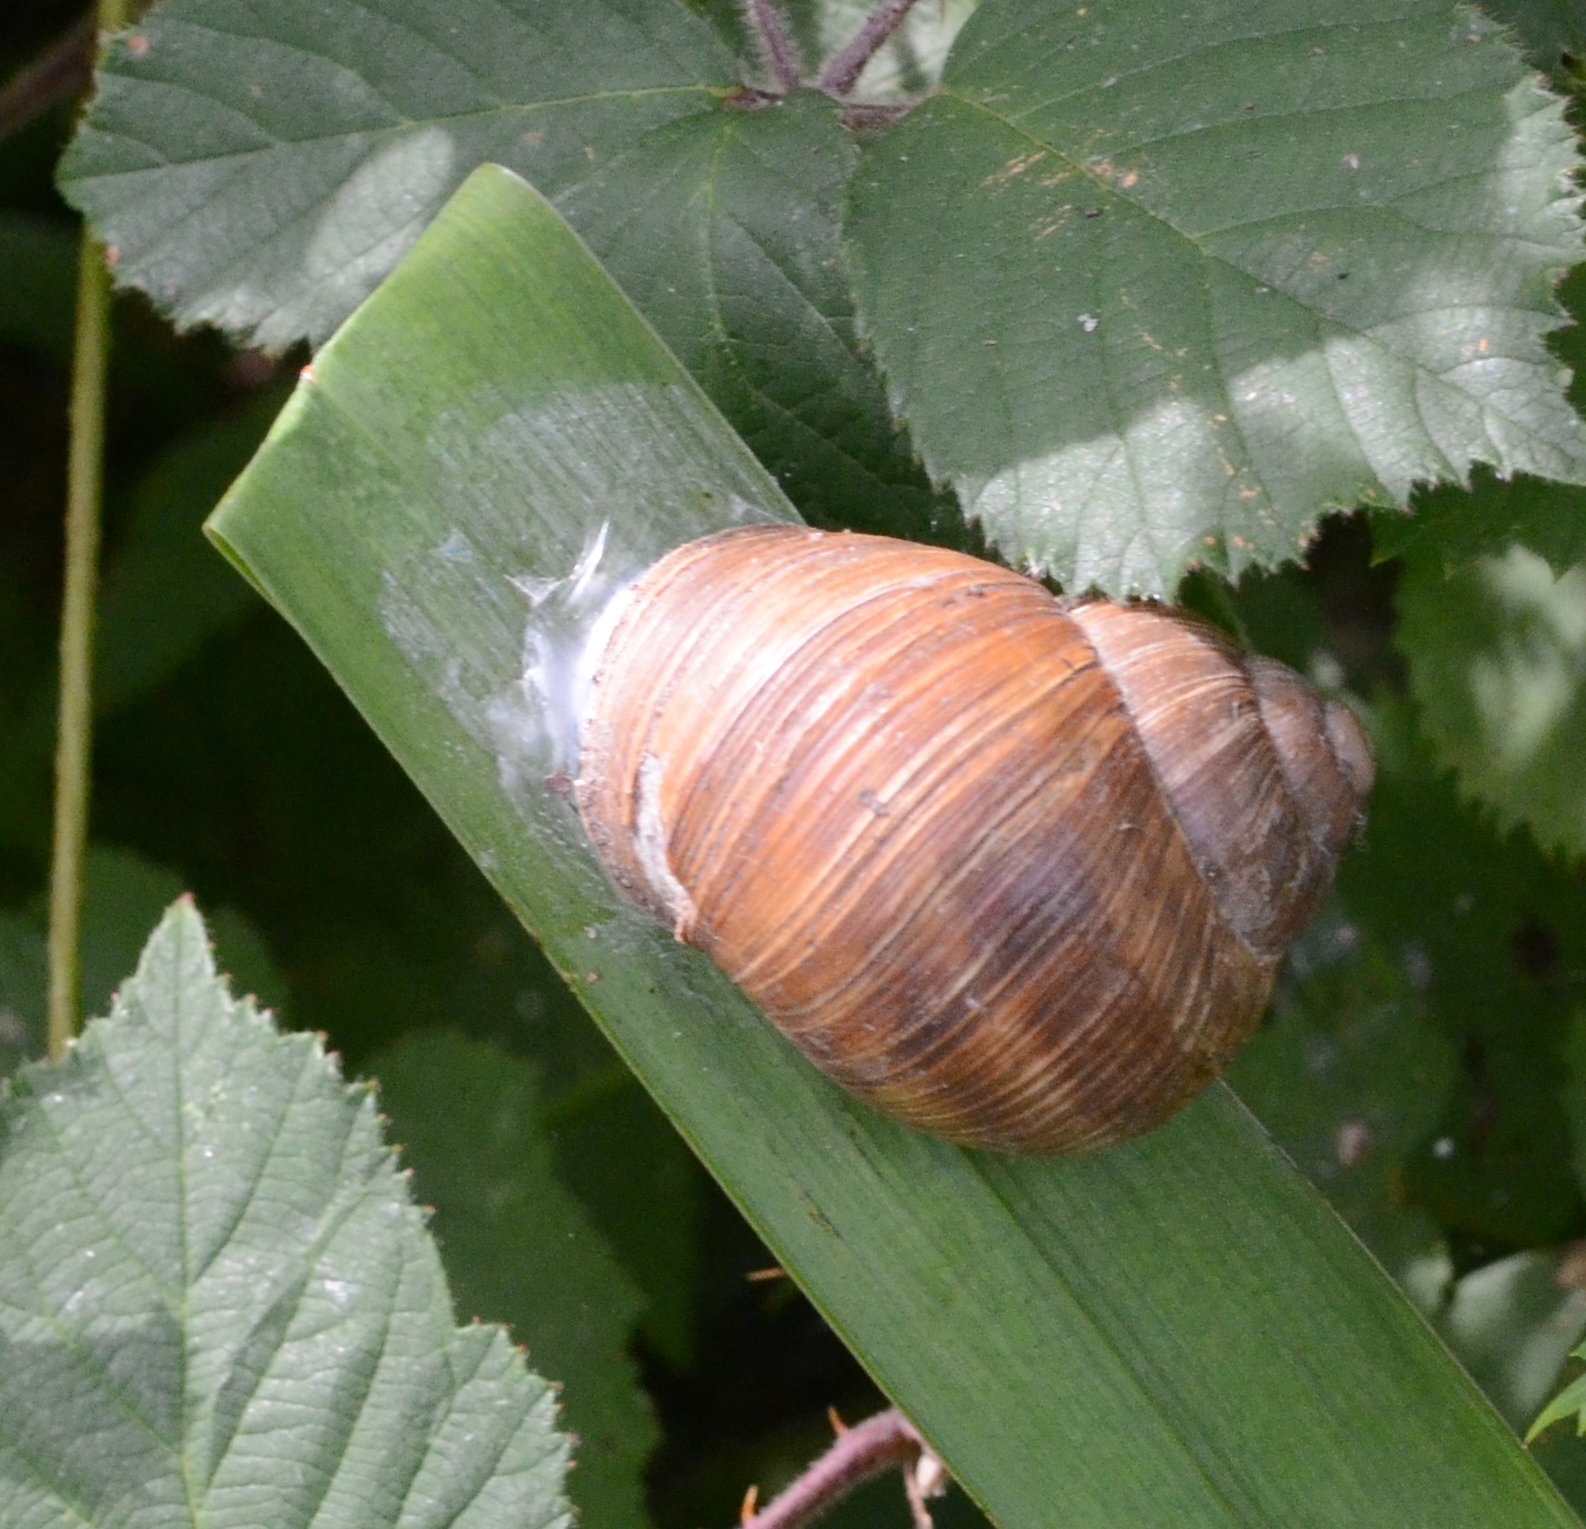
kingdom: Animalia
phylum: Mollusca
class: Gastropoda
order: Stylommatophora
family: Helicidae
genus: Helix
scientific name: Helix pomatia
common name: Roman snail
